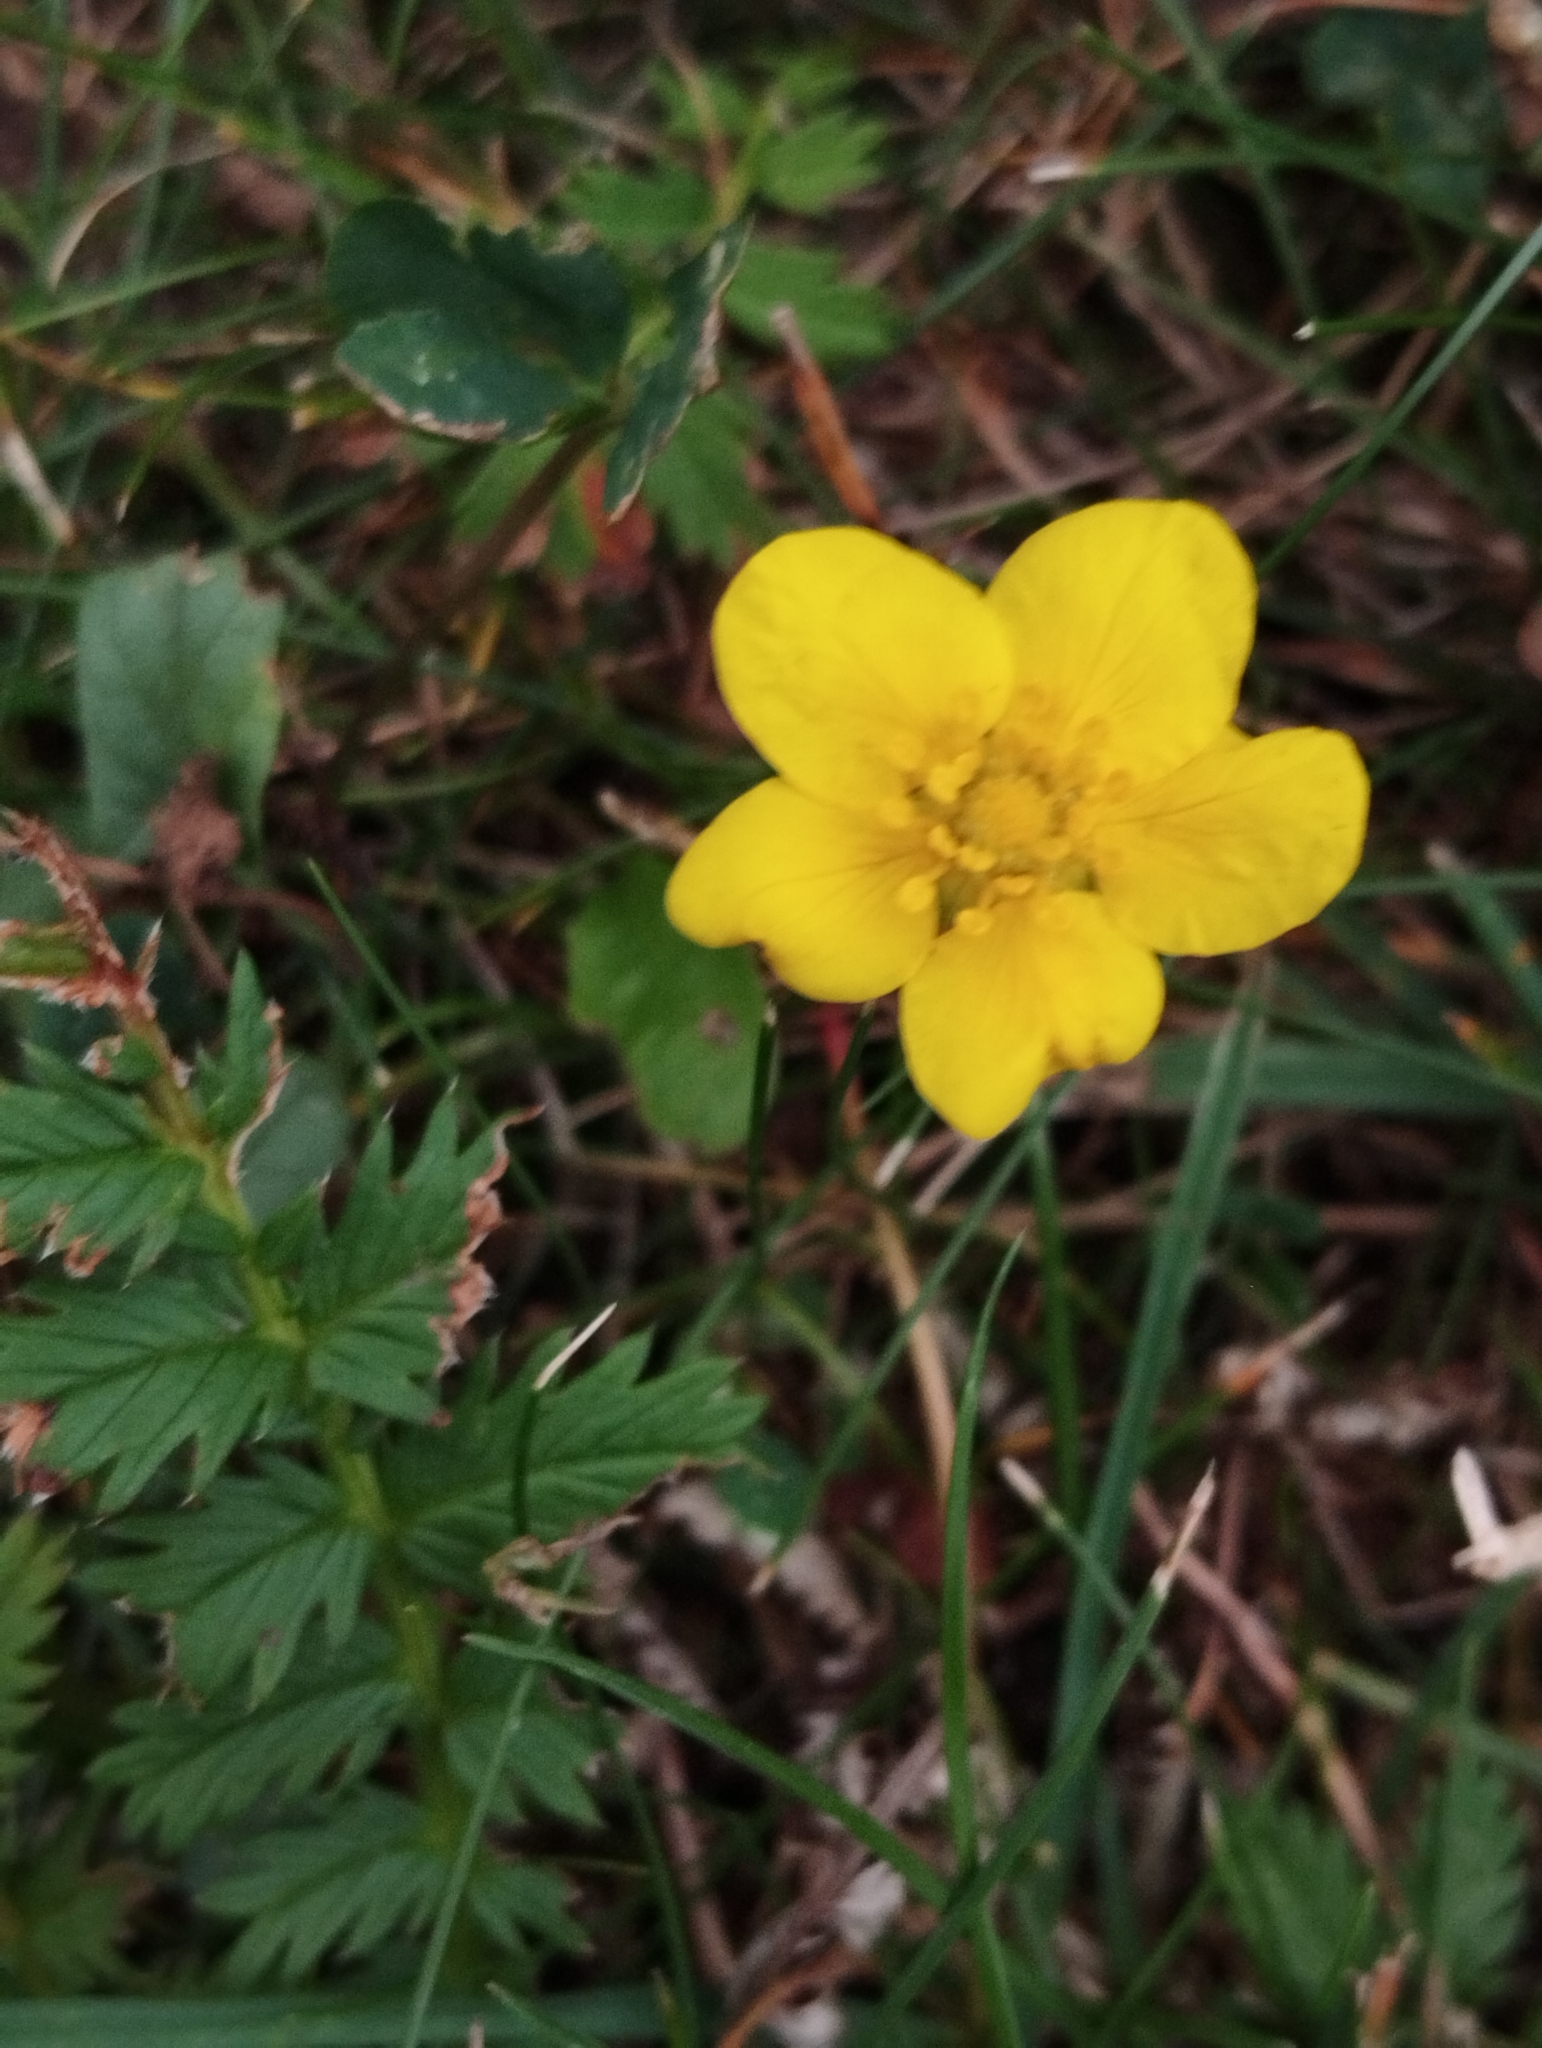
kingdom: Plantae
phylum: Tracheophyta
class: Magnoliopsida
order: Rosales
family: Rosaceae
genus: Argentina
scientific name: Argentina anserina
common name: Common silverweed
